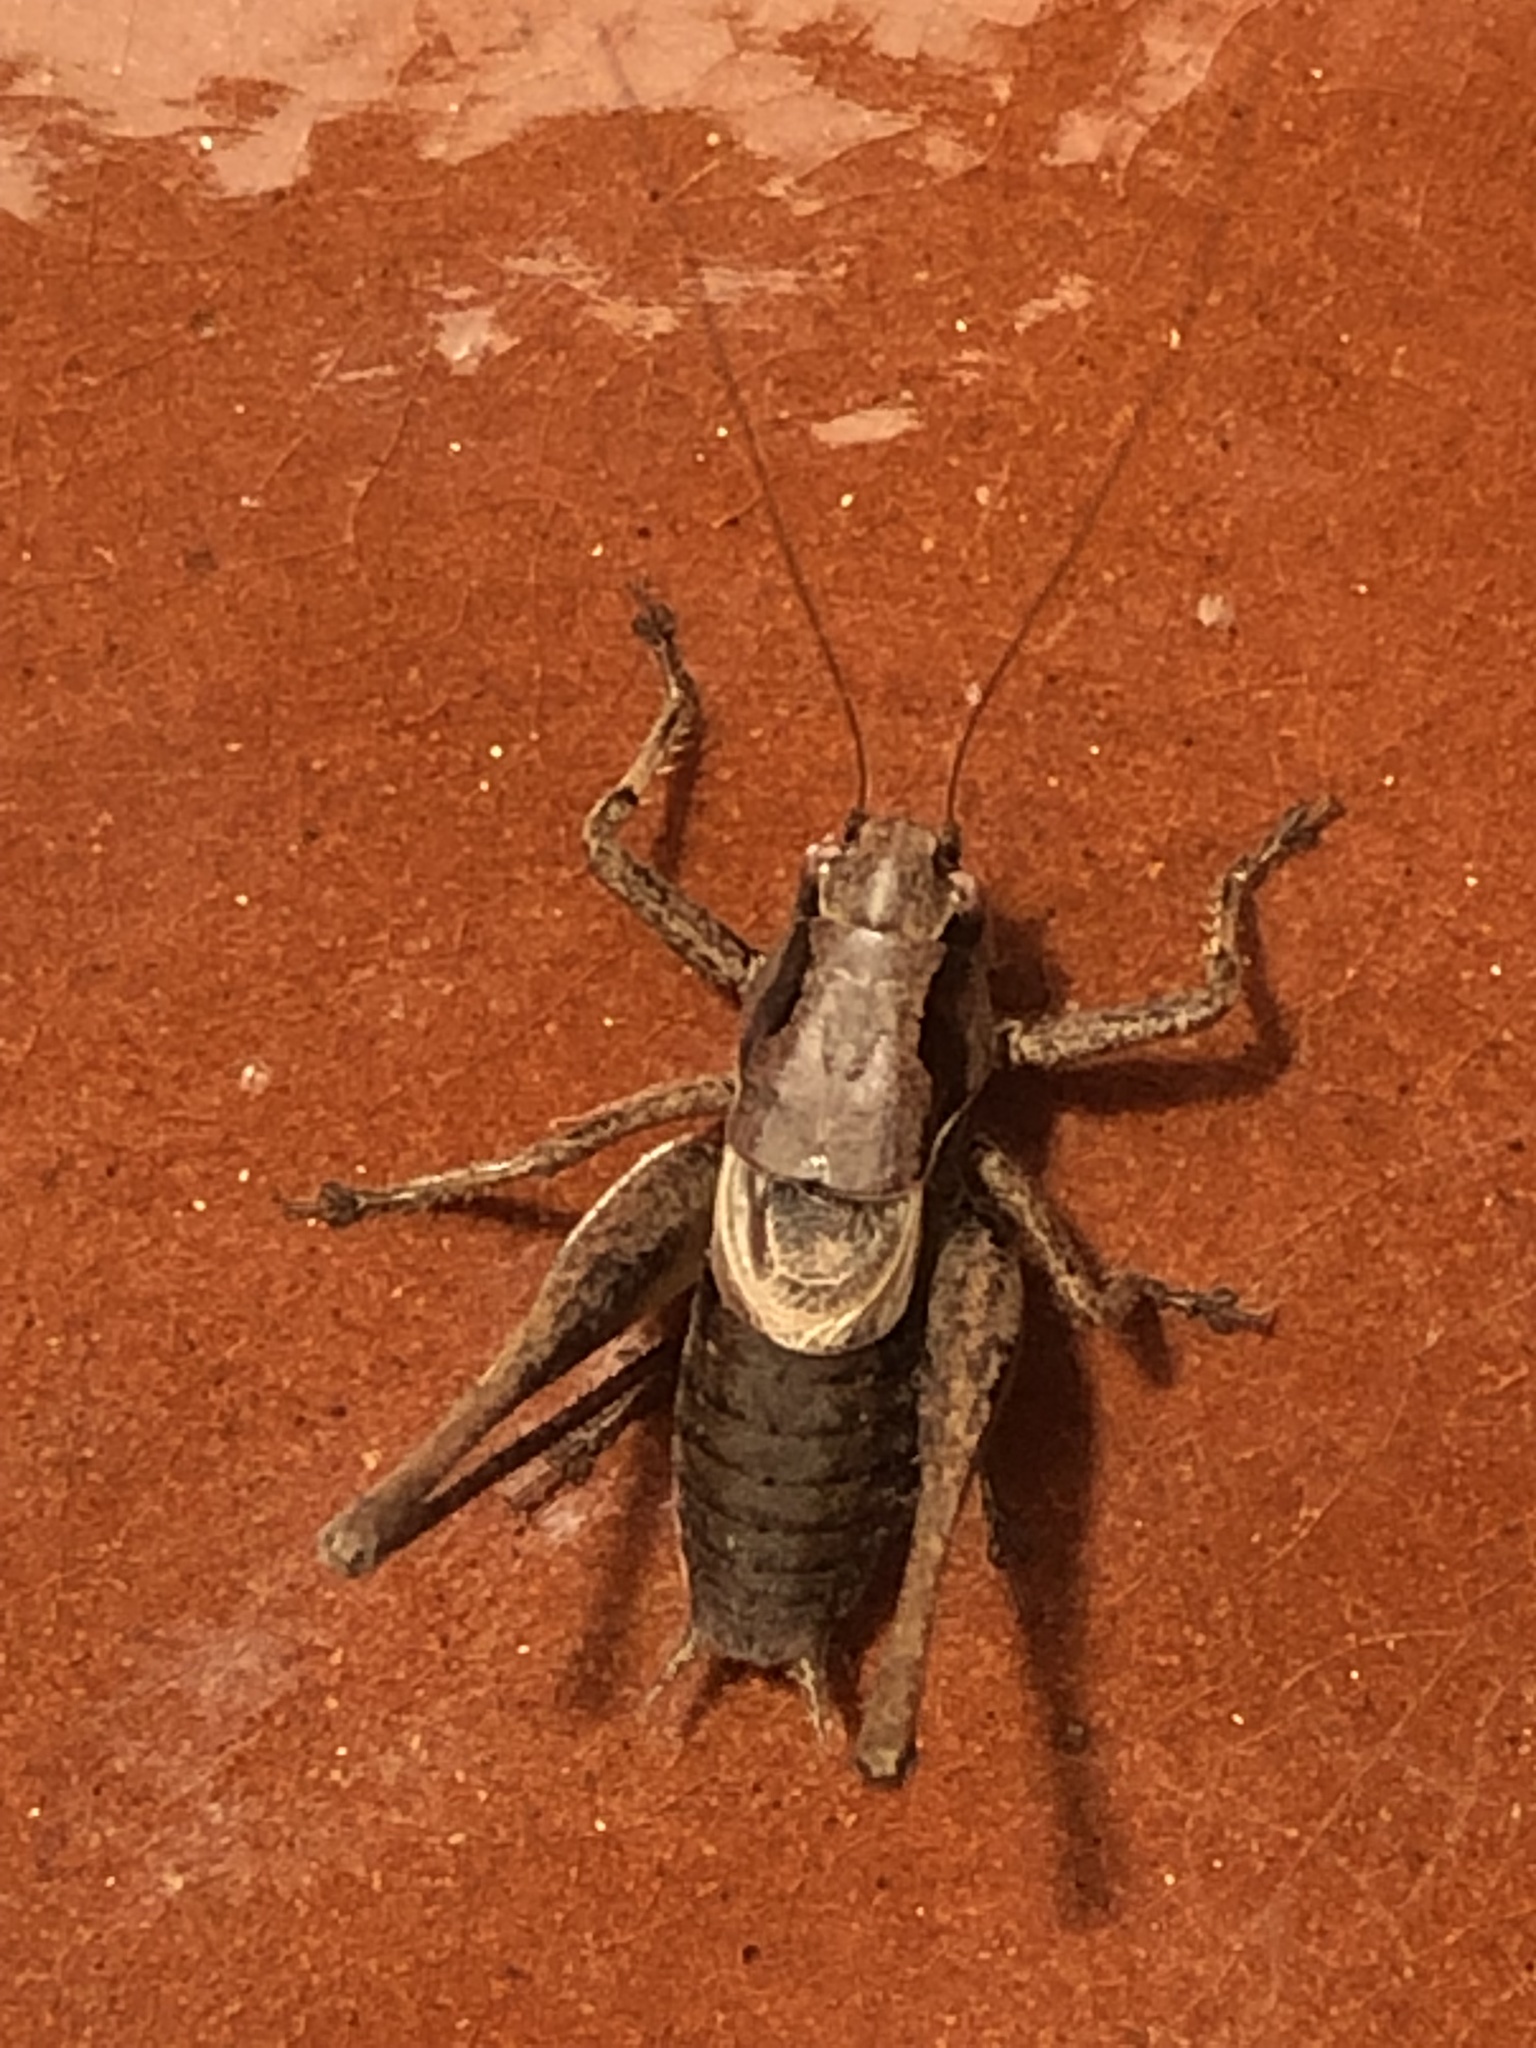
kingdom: Animalia
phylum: Arthropoda
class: Insecta
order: Orthoptera
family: Tettigoniidae
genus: Pholidoptera
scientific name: Pholidoptera griseoaptera
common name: Dark bush-cricket
